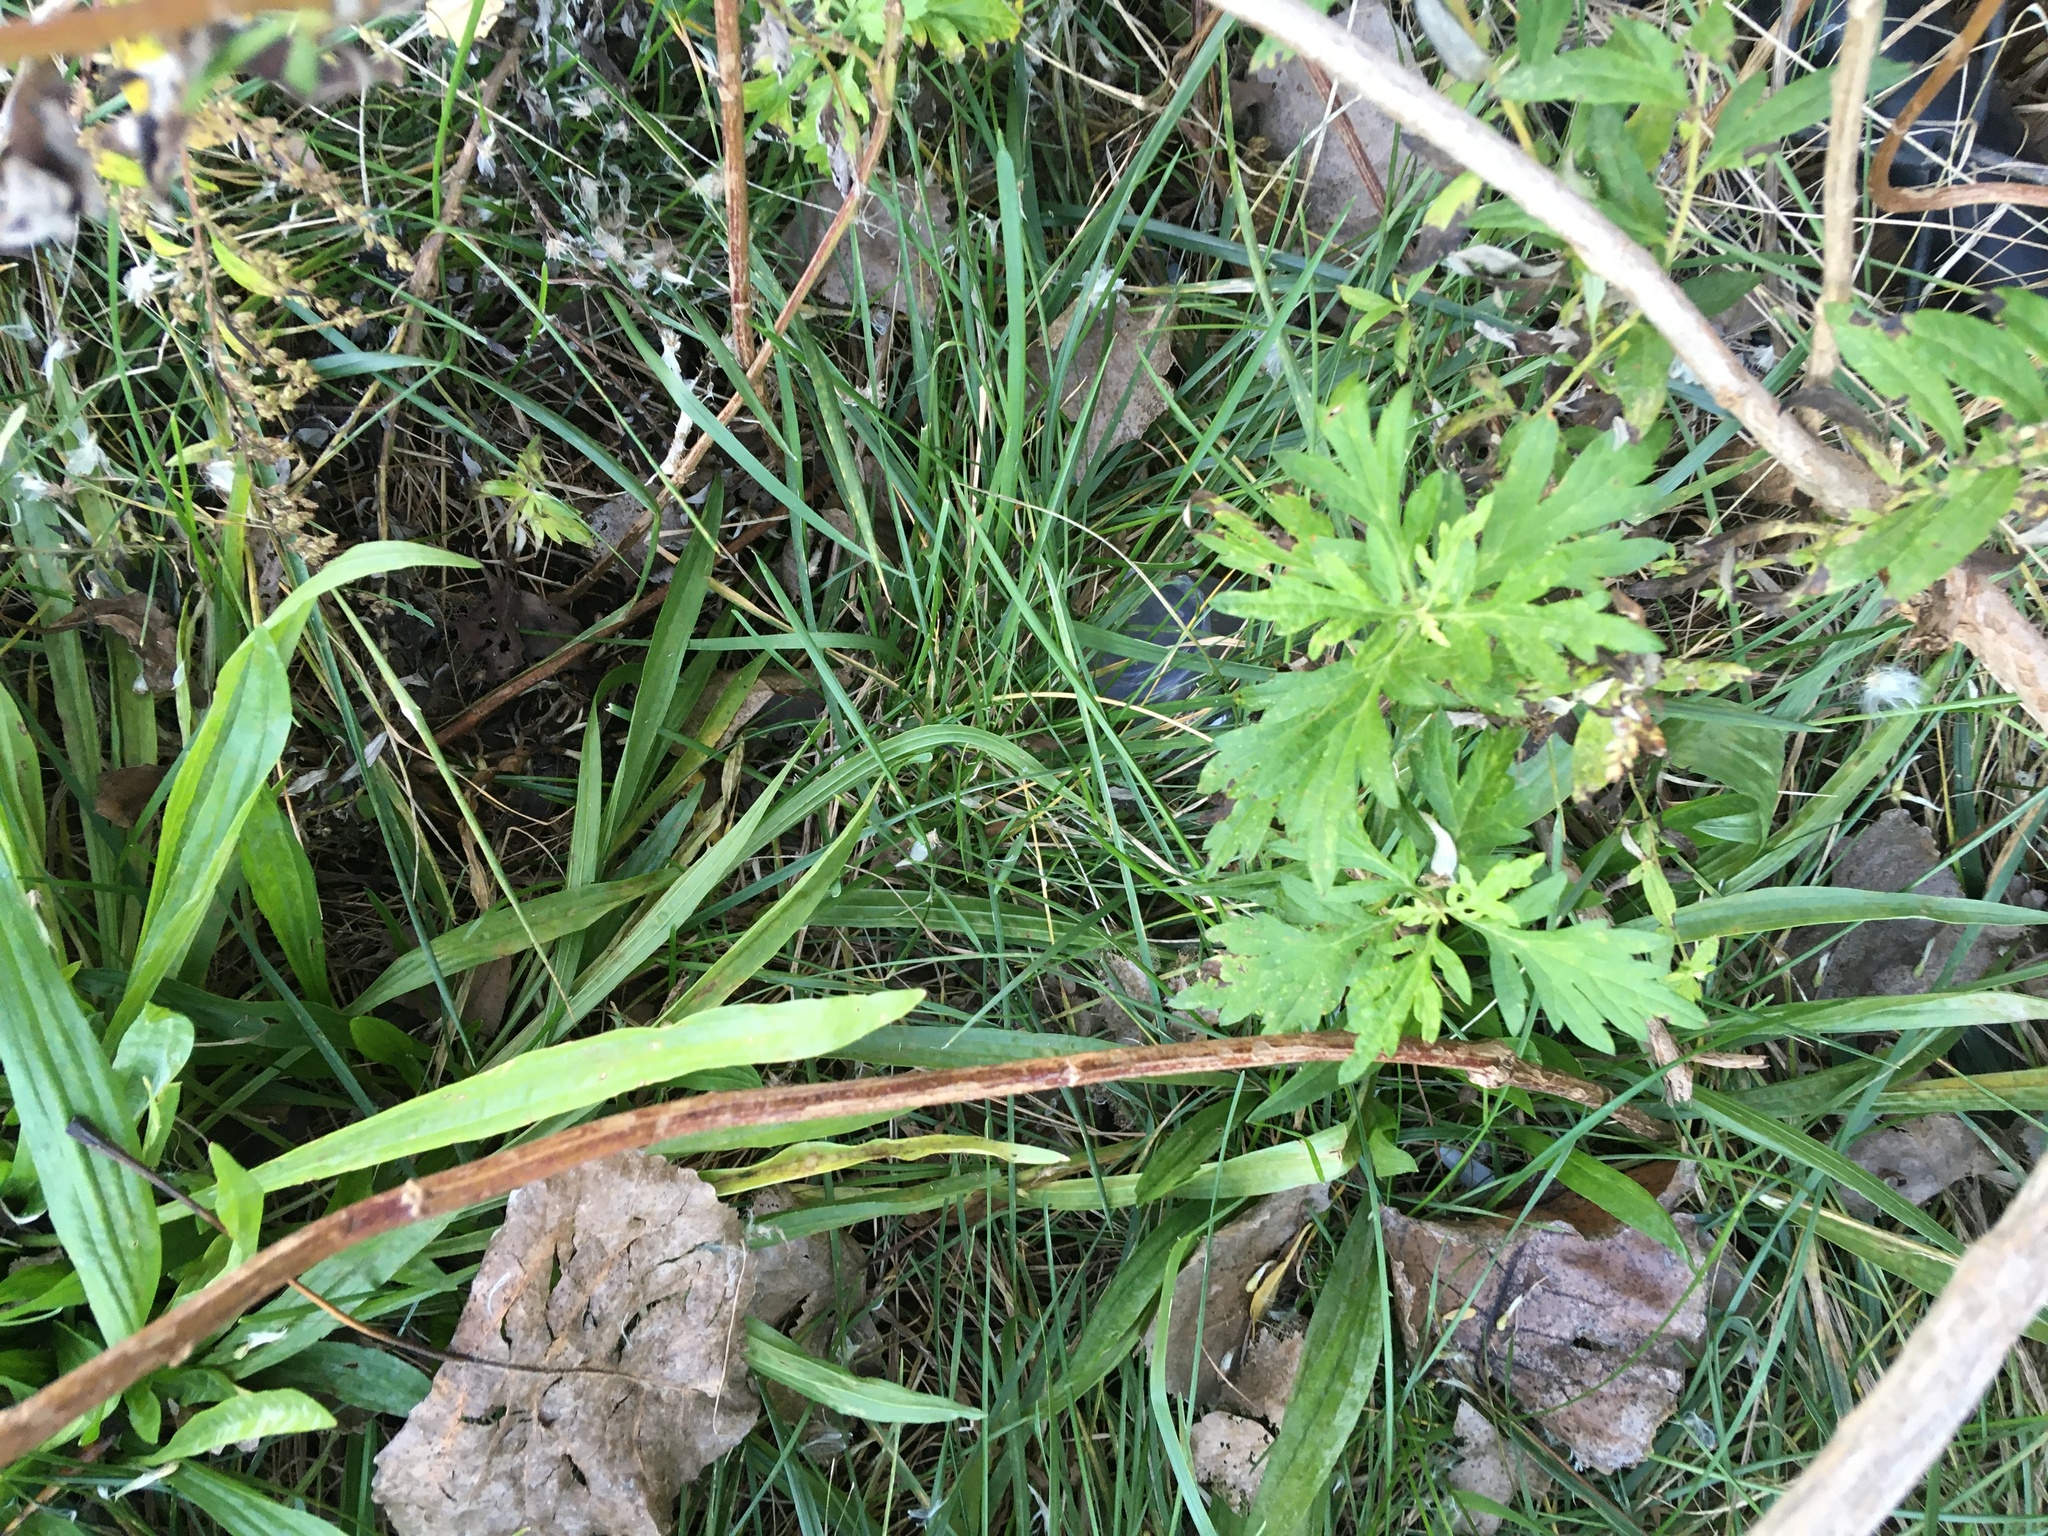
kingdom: Plantae
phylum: Tracheophyta
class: Magnoliopsida
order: Asterales
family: Asteraceae
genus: Artemisia
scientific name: Artemisia vulgaris
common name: Mugwort
